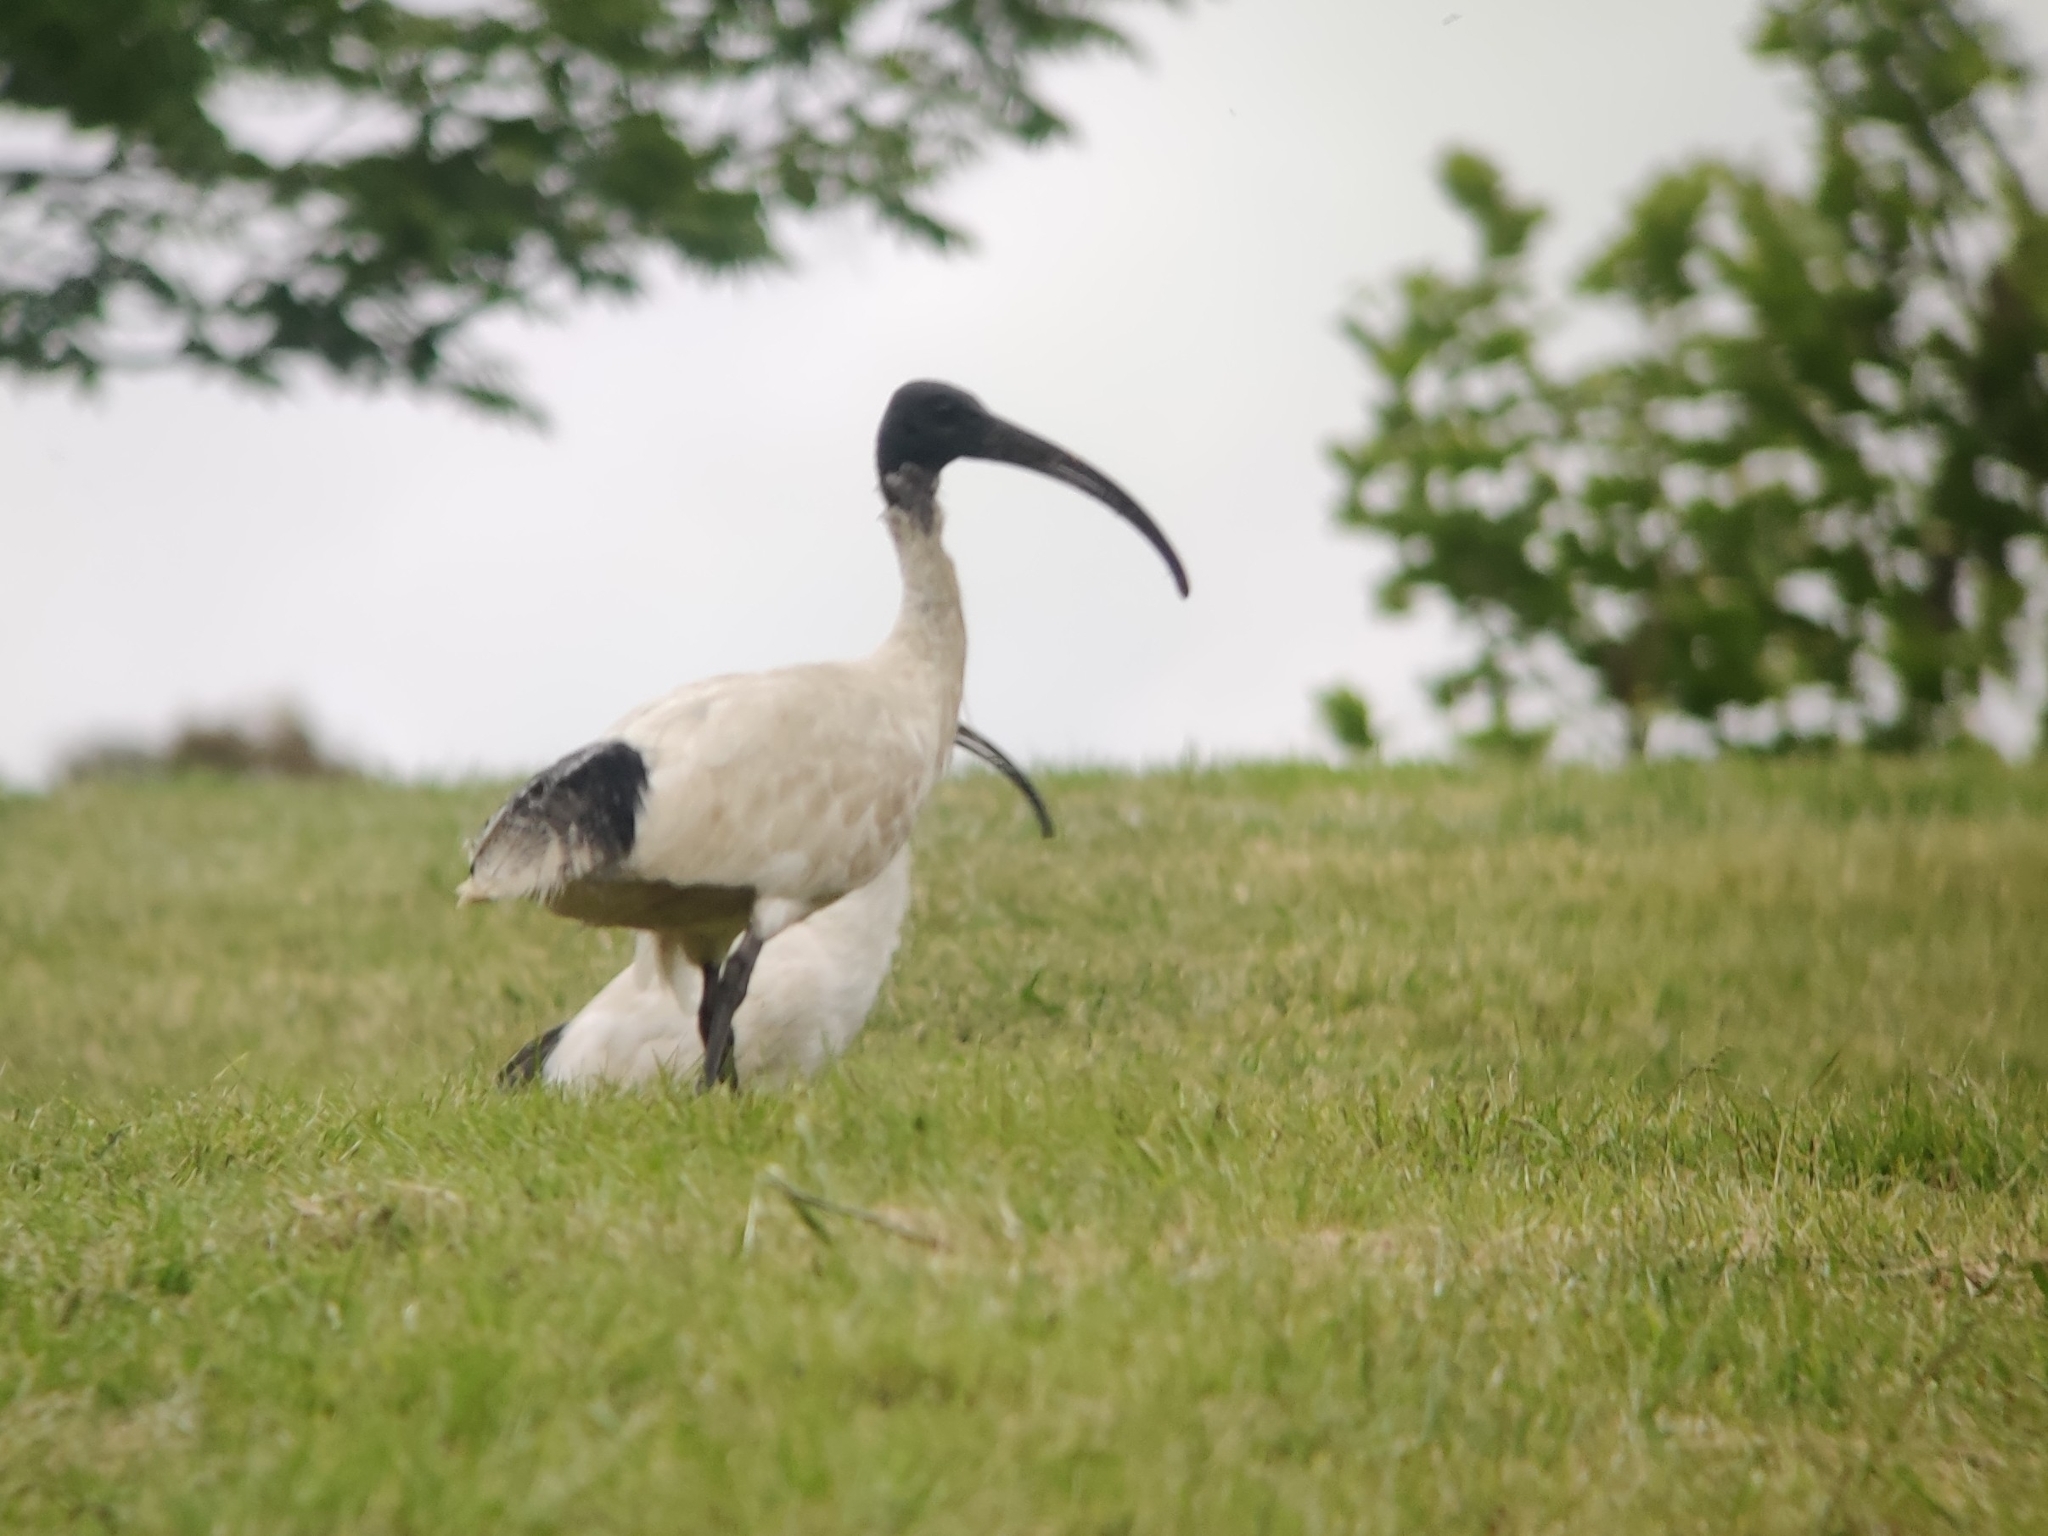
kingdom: Animalia
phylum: Chordata
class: Aves
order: Pelecaniformes
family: Threskiornithidae
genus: Threskiornis
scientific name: Threskiornis molucca
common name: Australian white ibis
